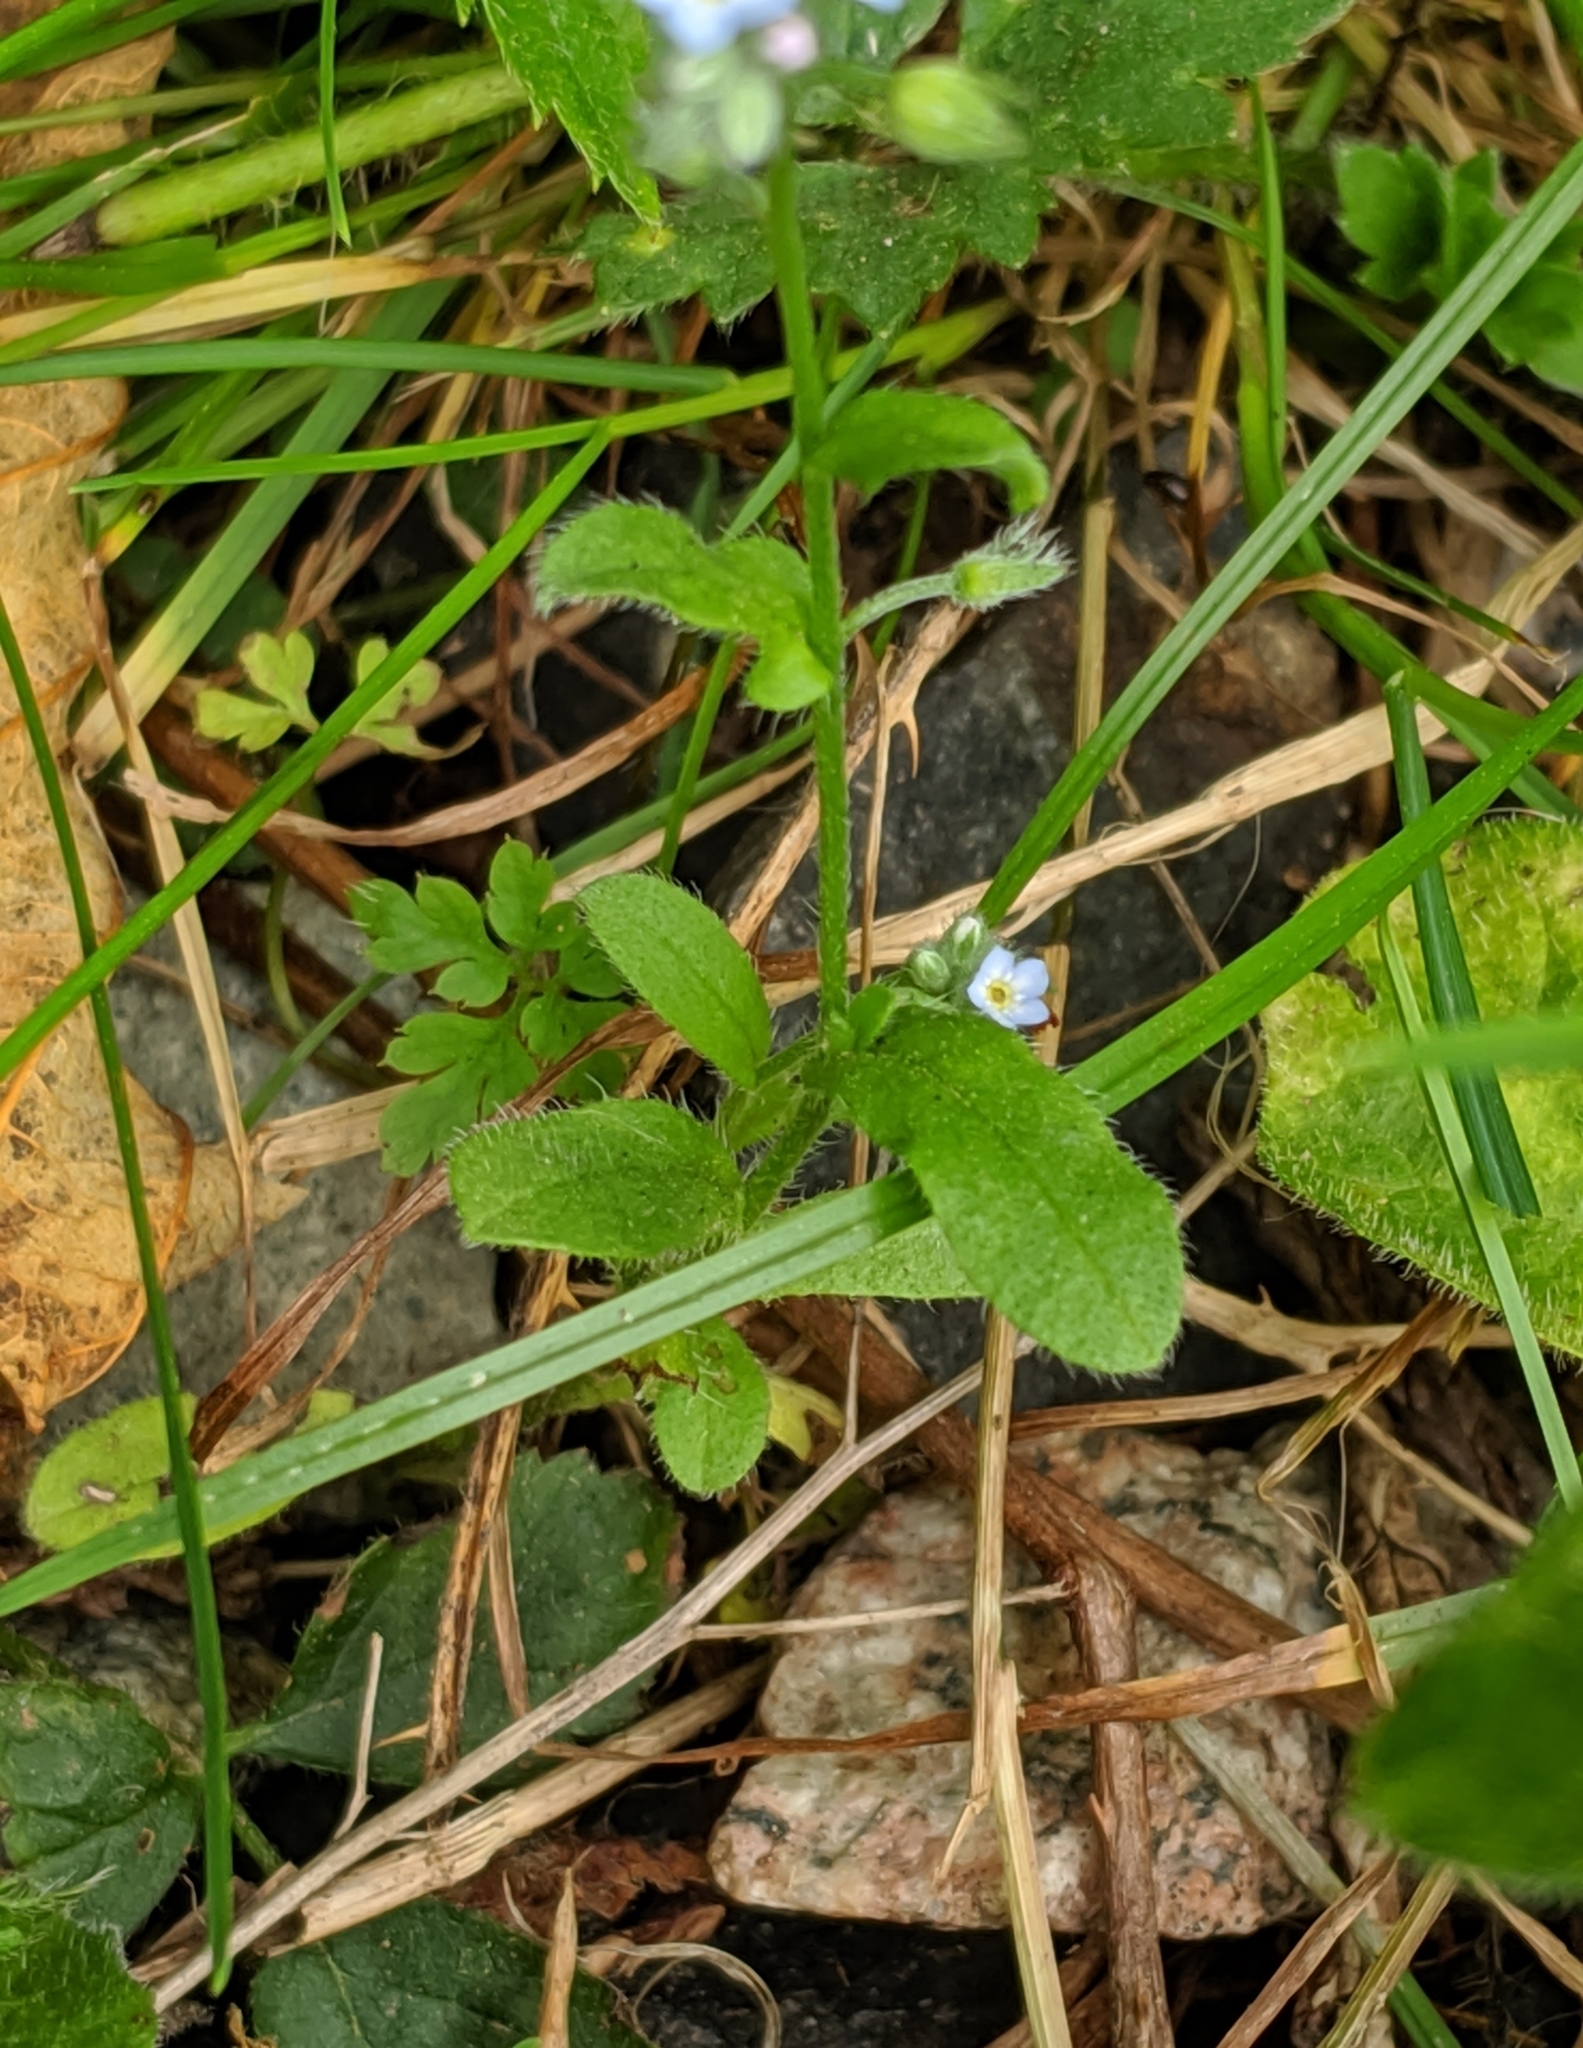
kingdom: Plantae
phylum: Tracheophyta
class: Magnoliopsida
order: Boraginales
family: Boraginaceae
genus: Myosotis
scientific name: Myosotis arvensis
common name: Field forget-me-not
